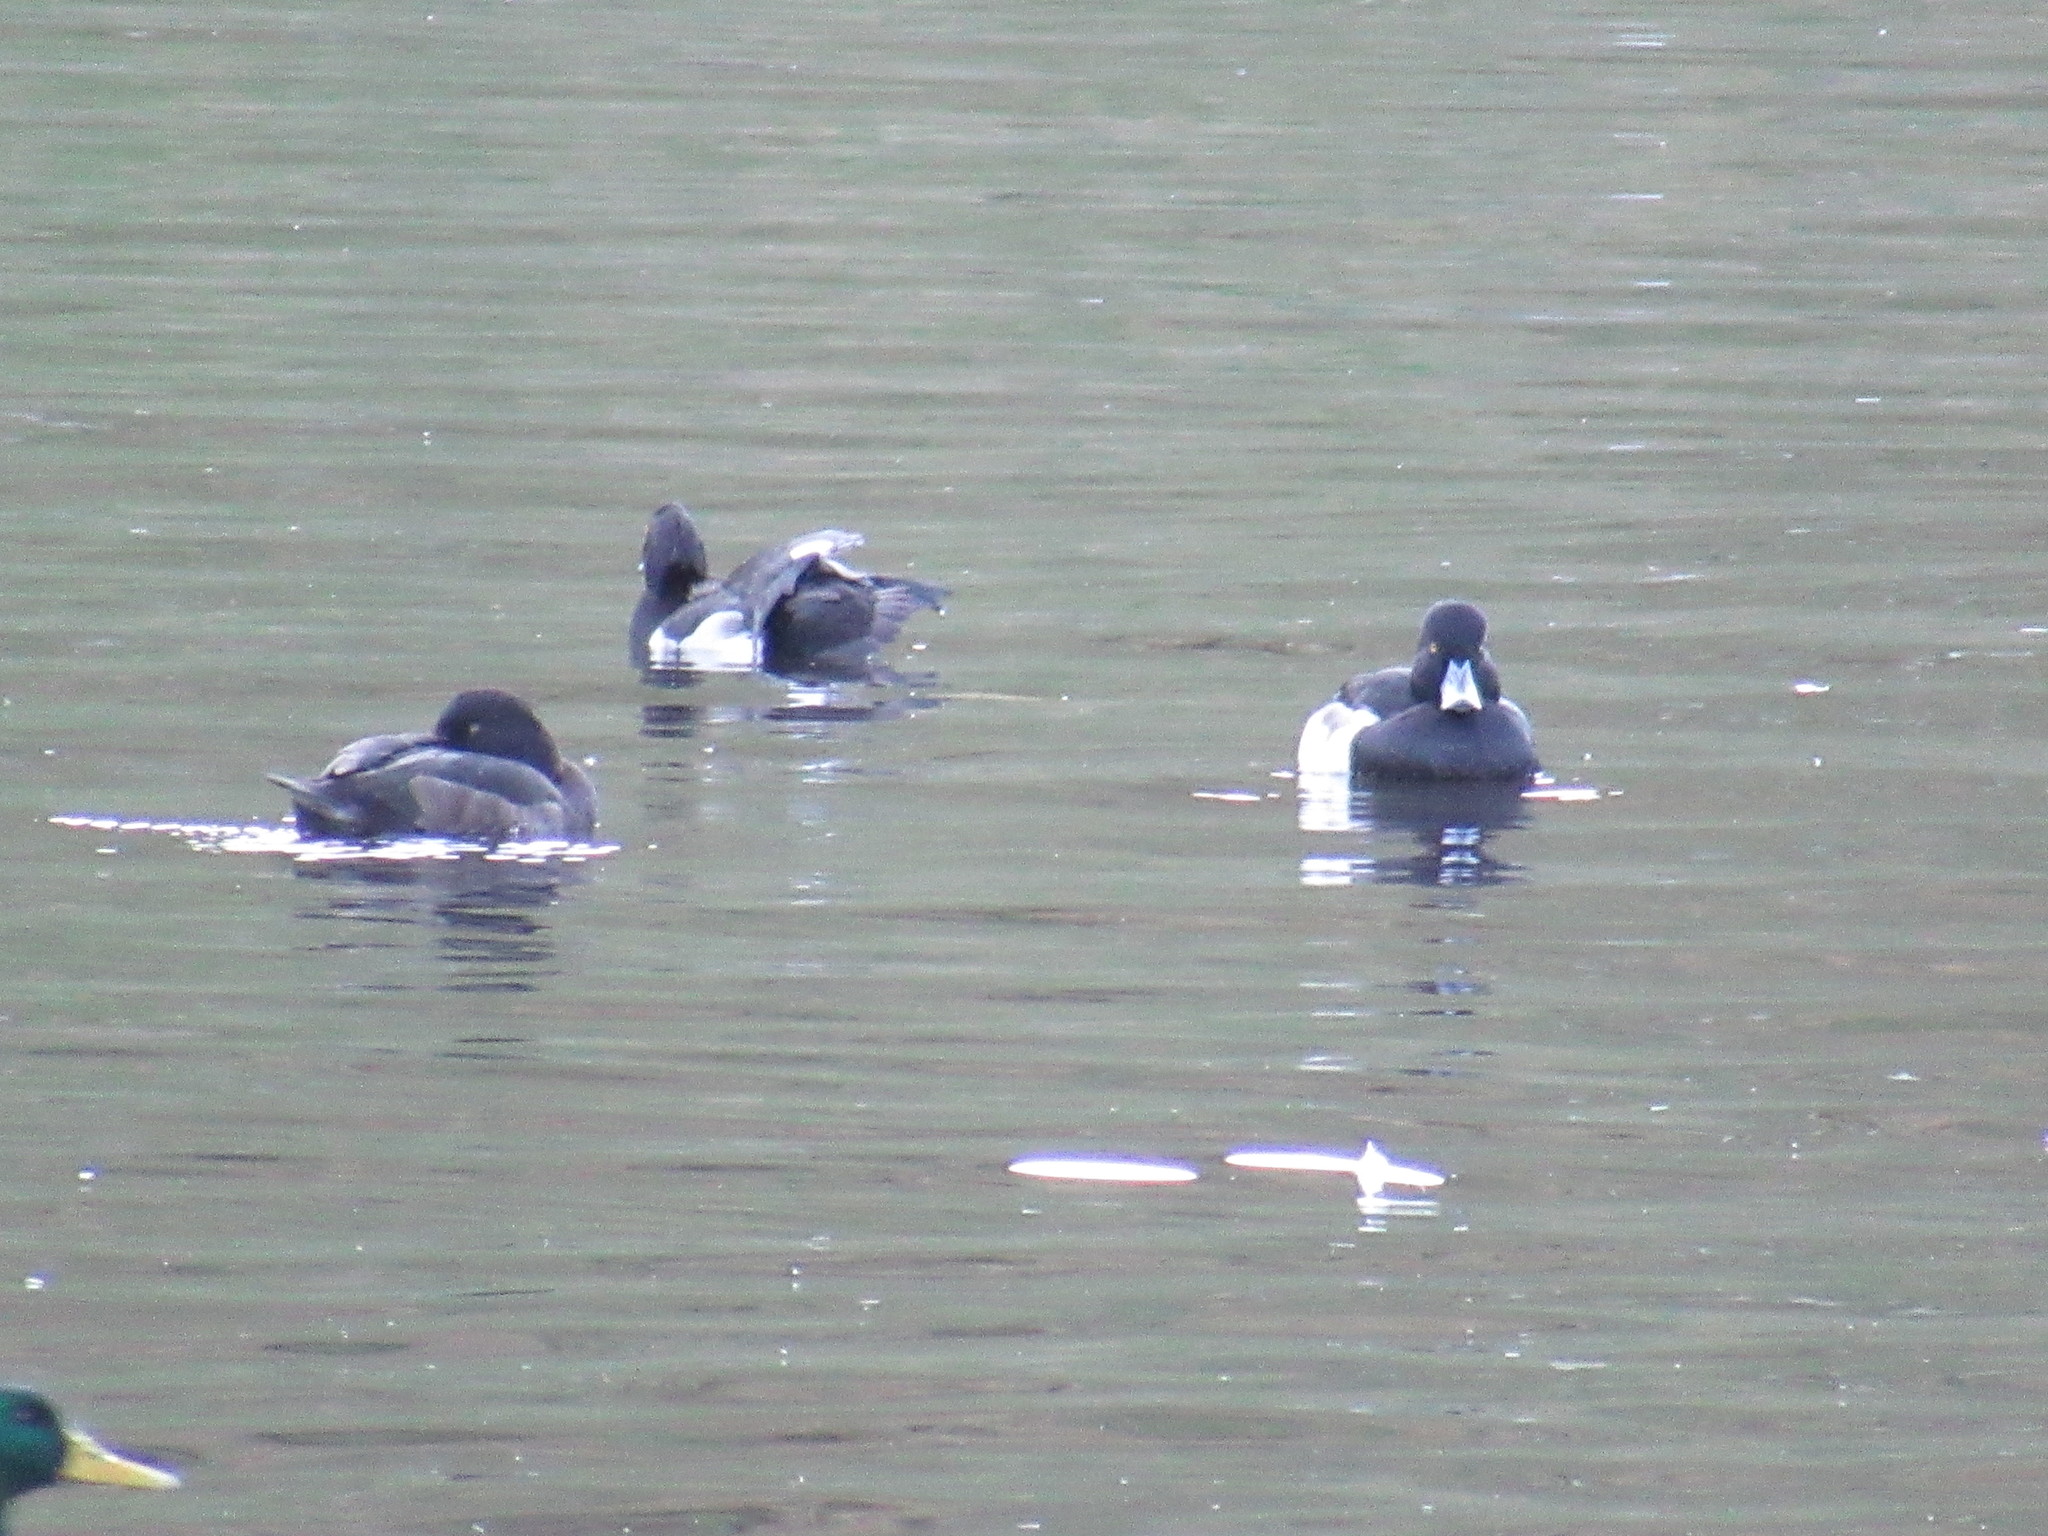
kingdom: Animalia
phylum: Chordata
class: Aves
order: Anseriformes
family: Anatidae
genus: Aythya
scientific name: Aythya fuligula
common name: Tufted duck
